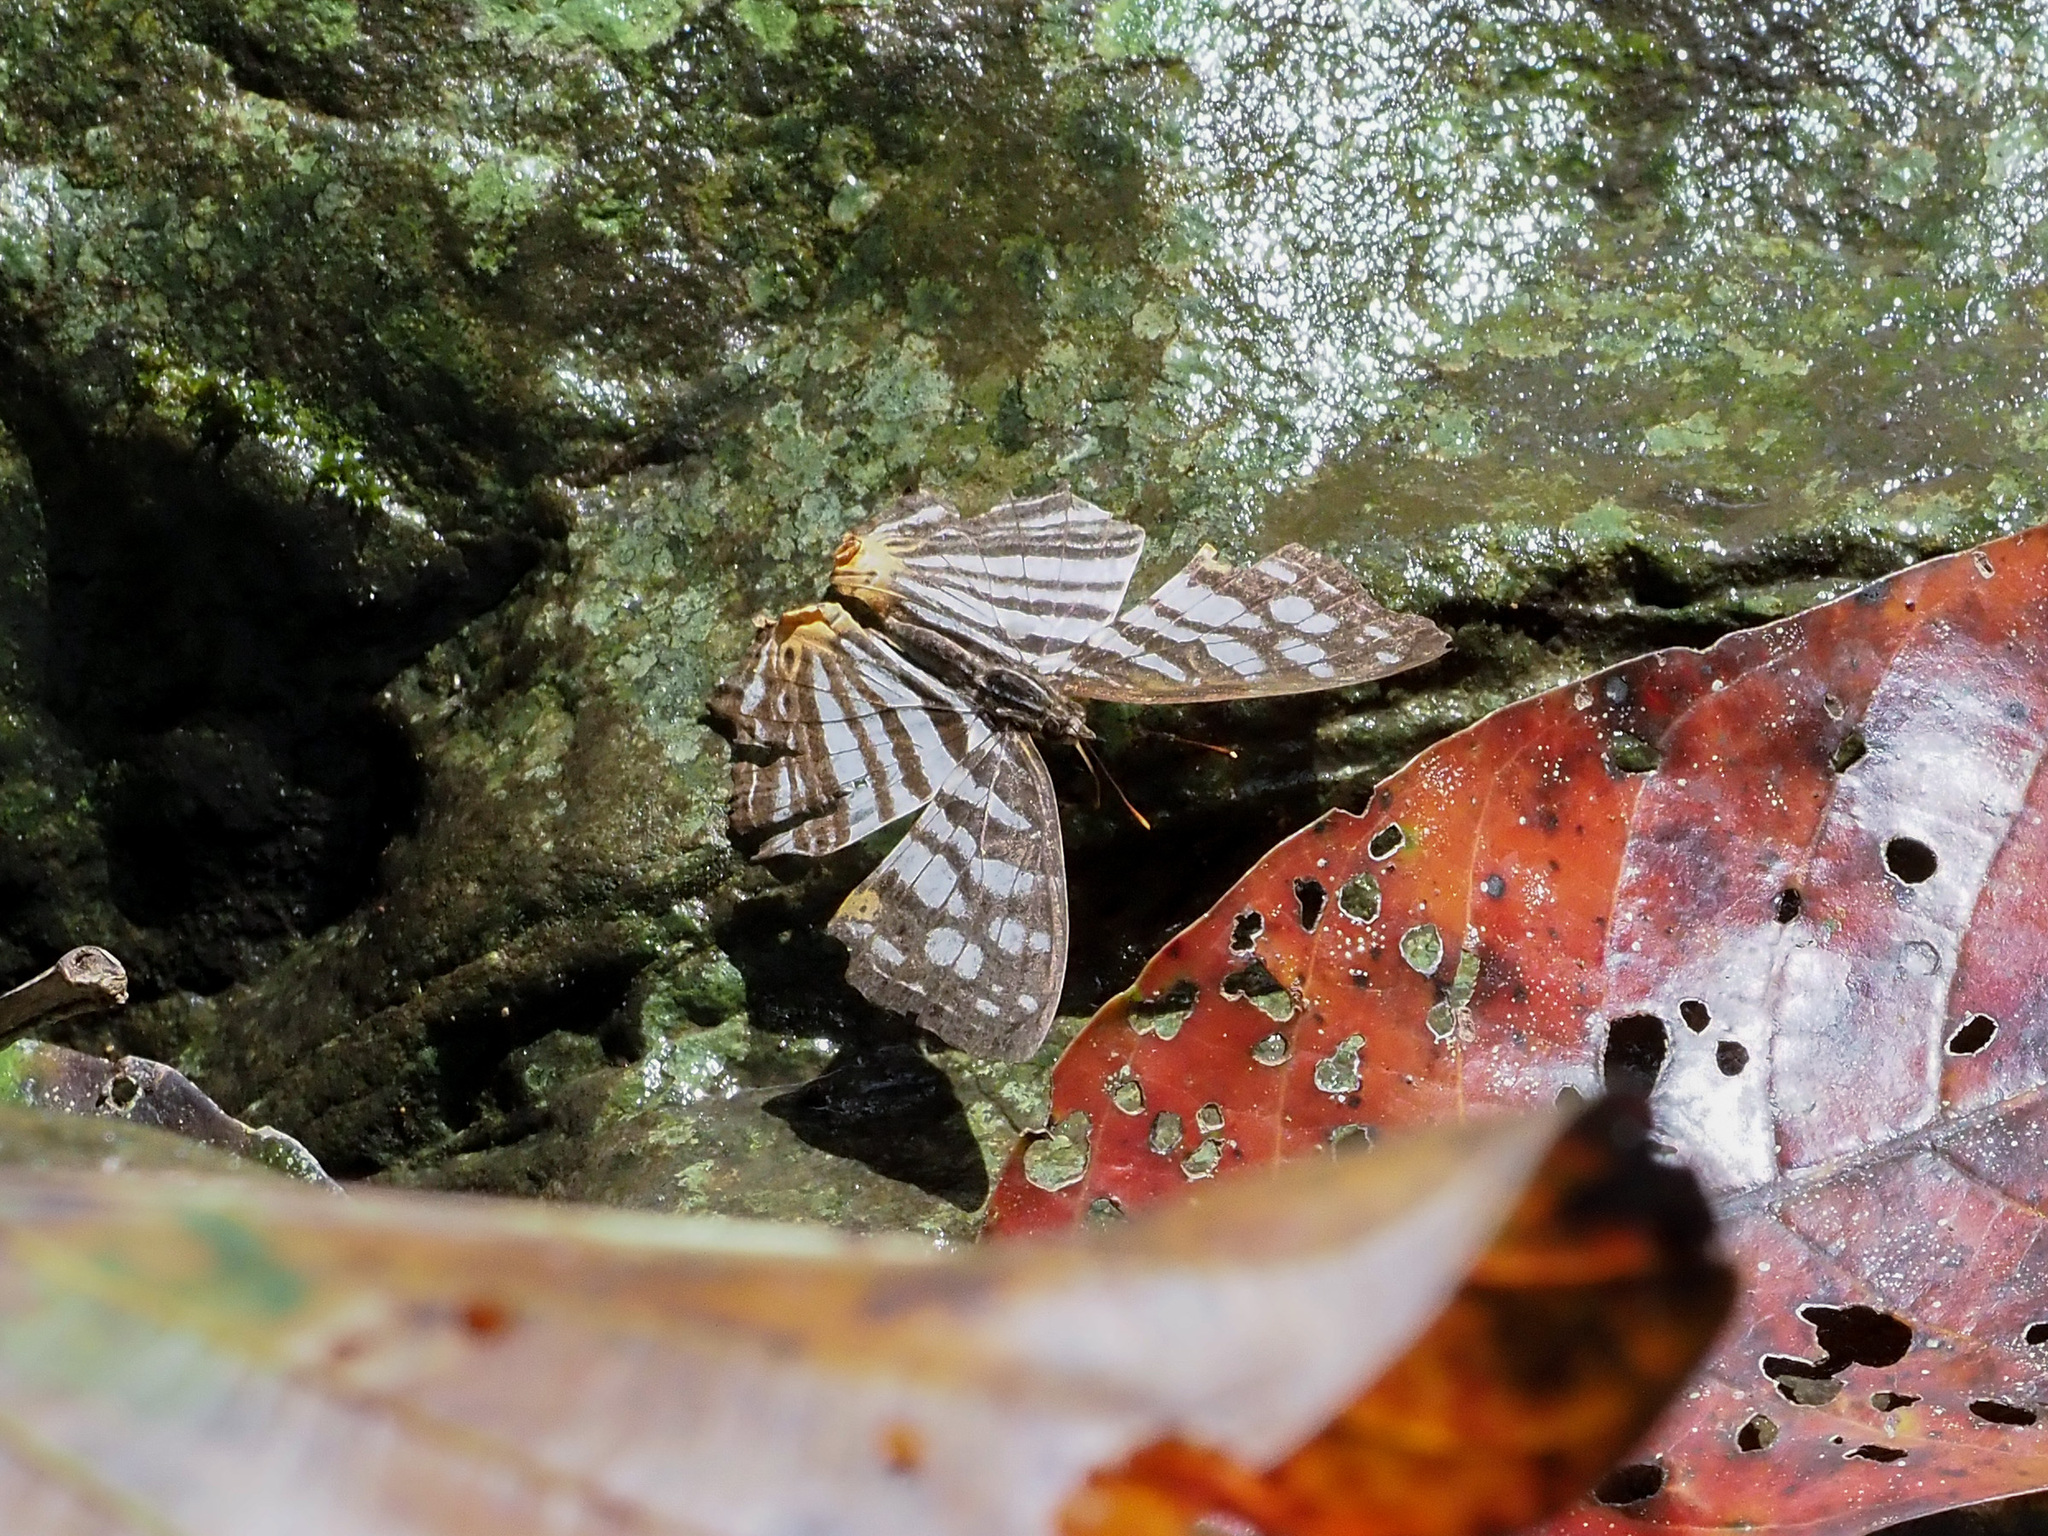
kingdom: Animalia
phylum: Arthropoda
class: Insecta
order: Lepidoptera
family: Nymphalidae
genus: Cyrestis
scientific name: Cyrestis maenalis
